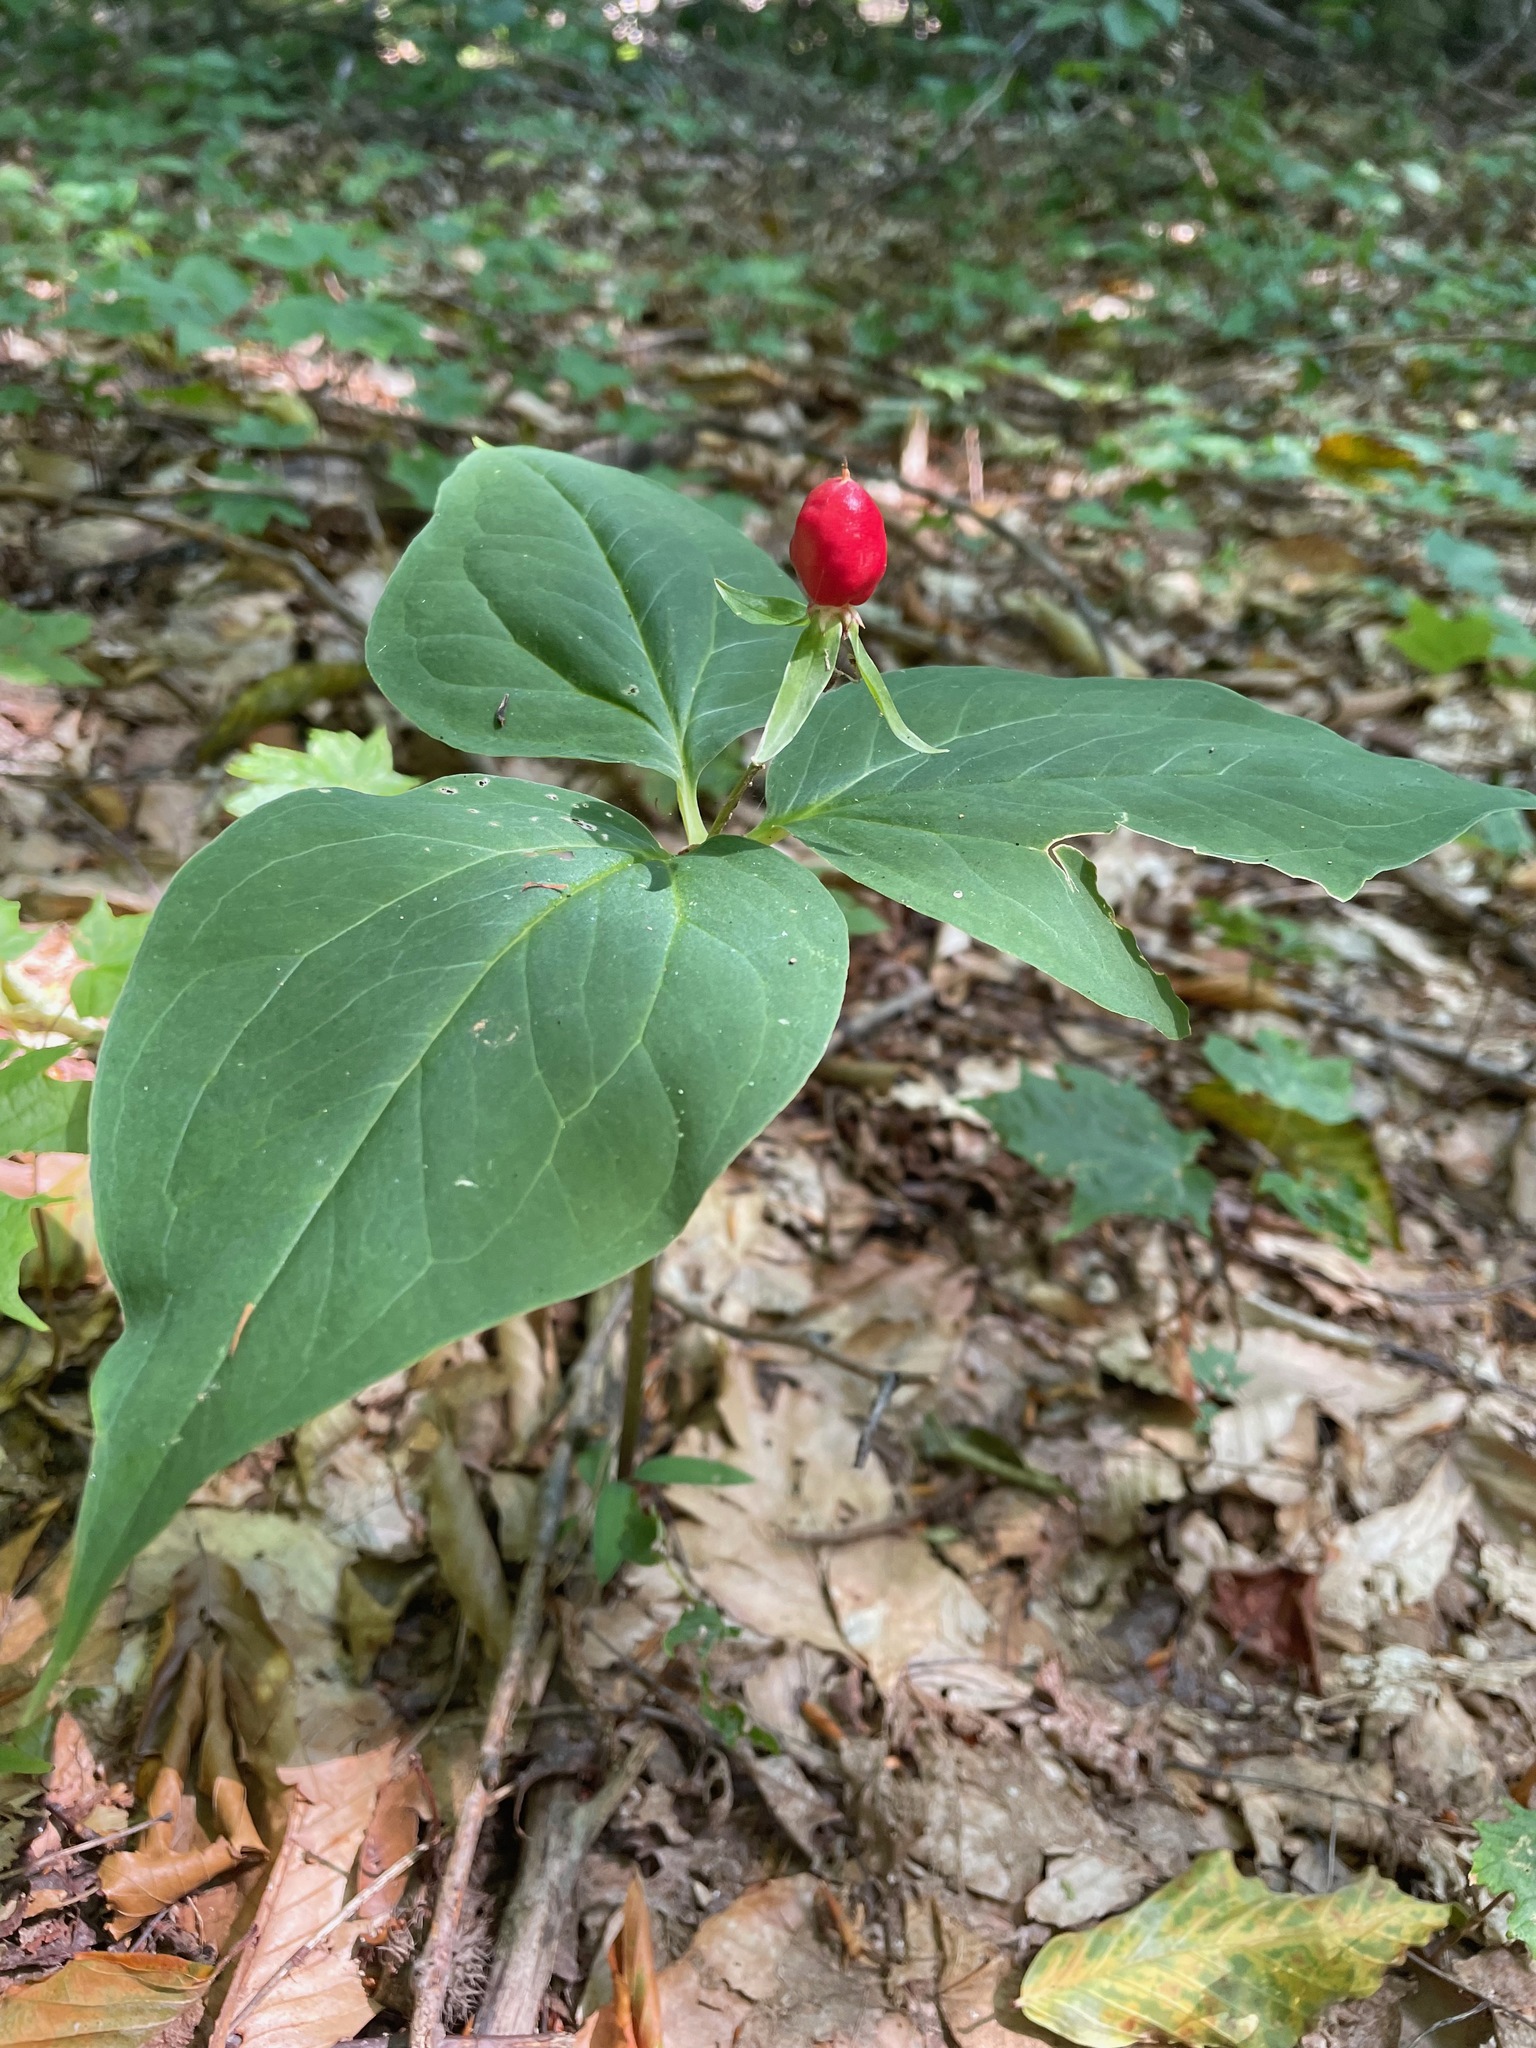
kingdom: Plantae
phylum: Tracheophyta
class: Liliopsida
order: Liliales
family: Melanthiaceae
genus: Trillium
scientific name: Trillium undulatum
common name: Paint trillium
